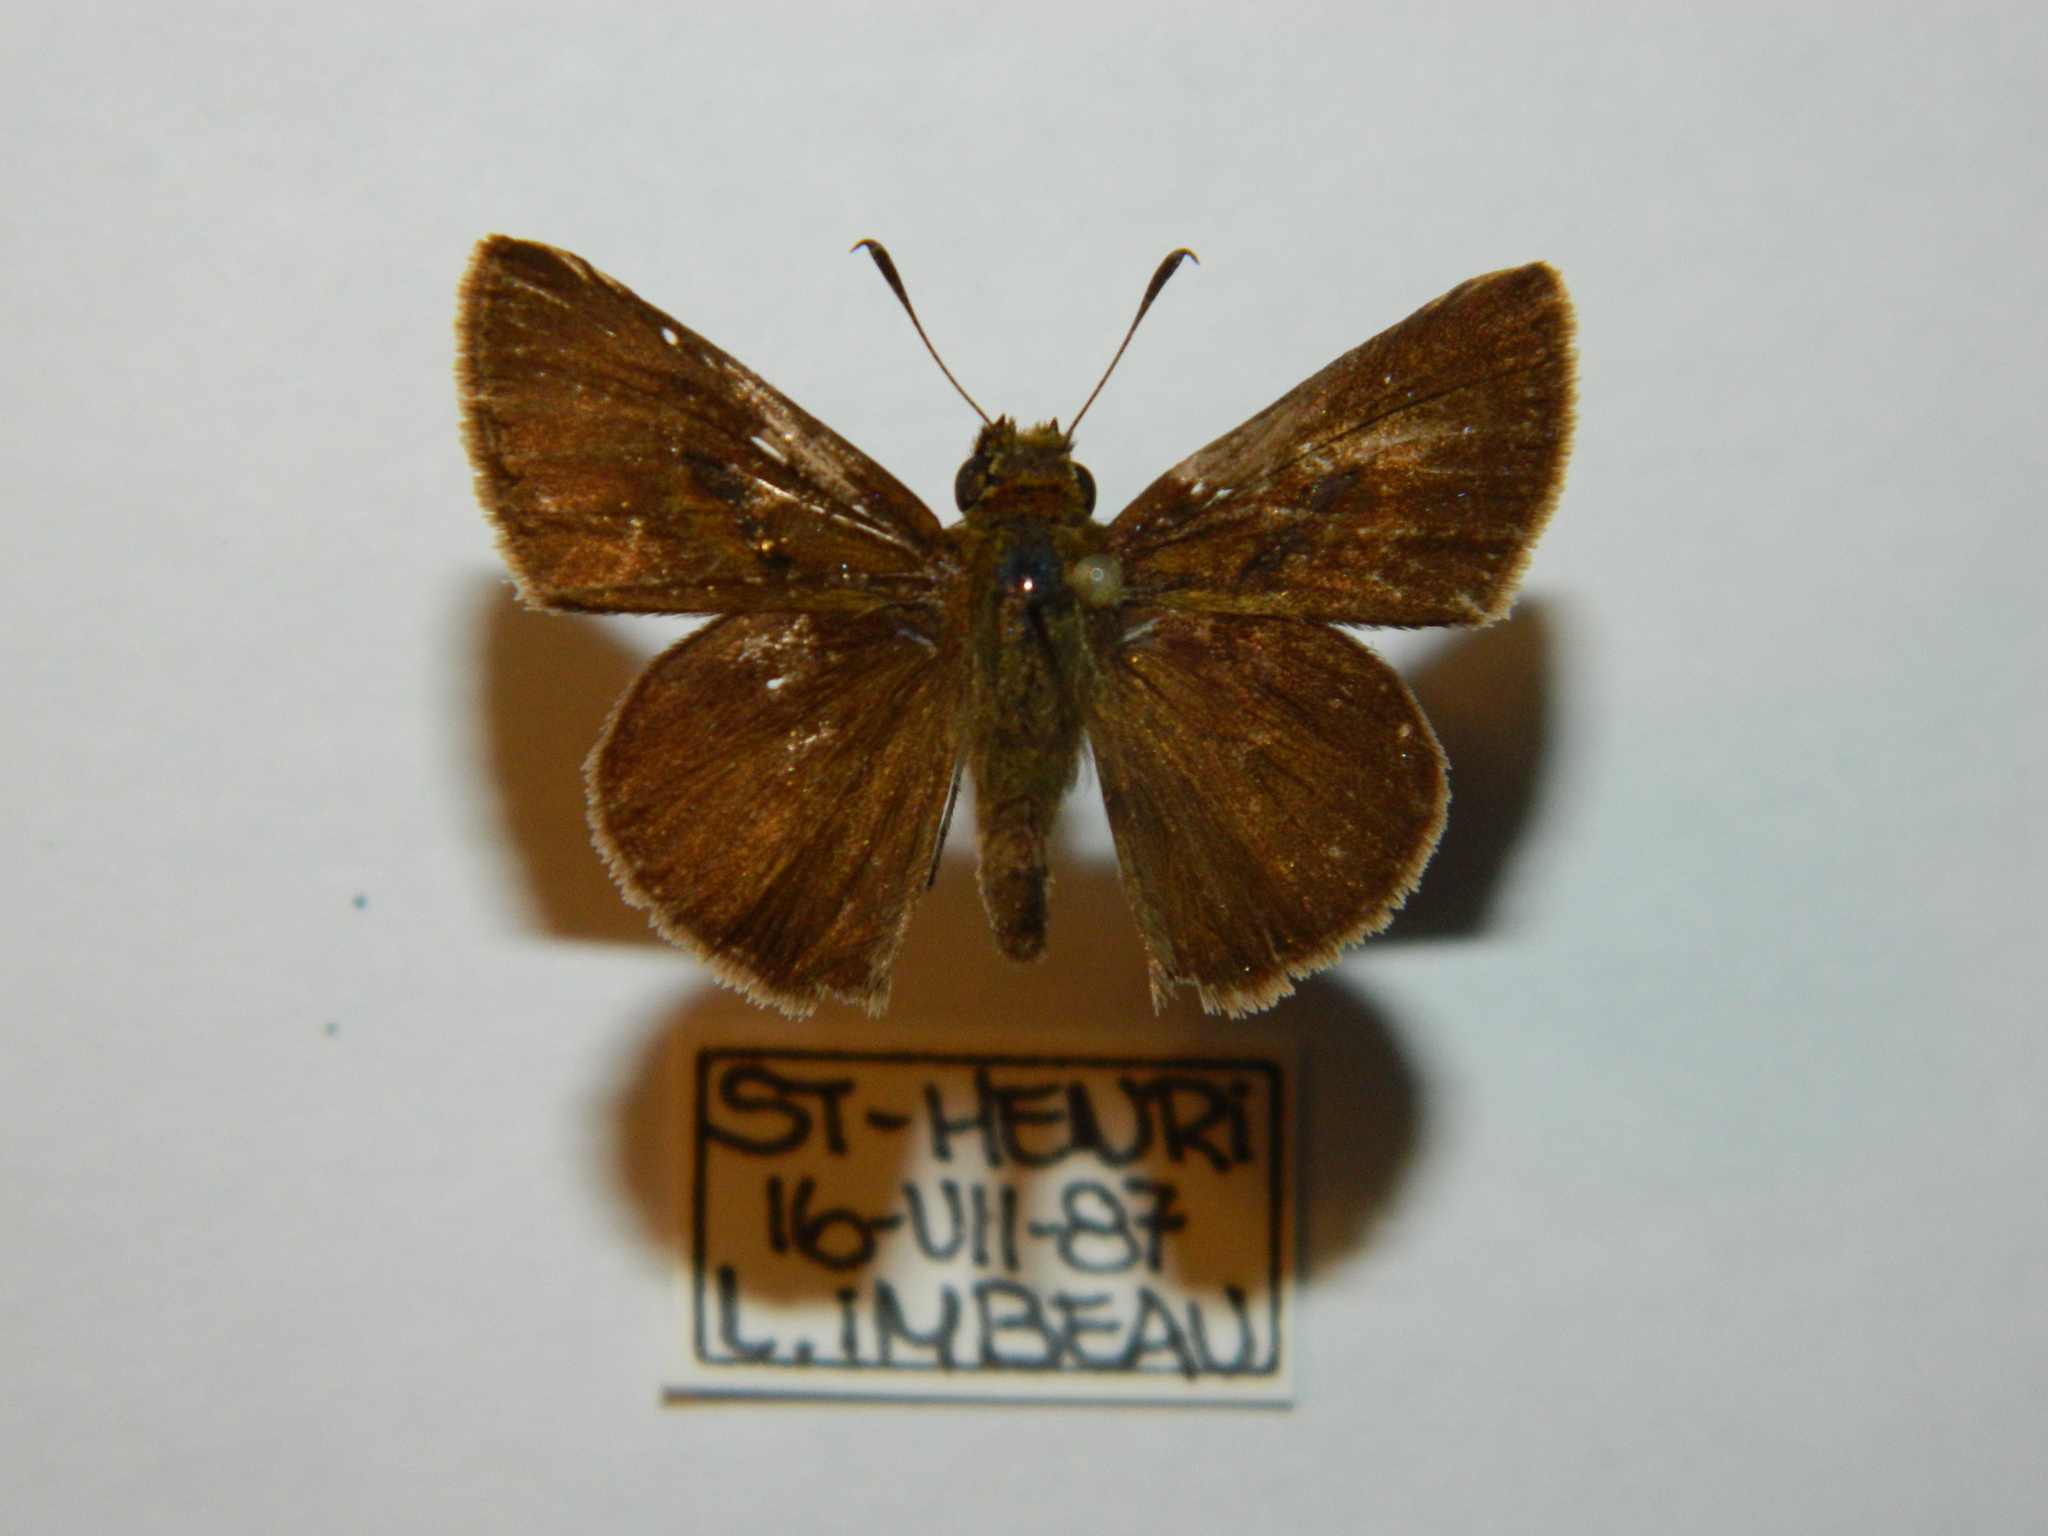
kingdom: Animalia
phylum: Arthropoda
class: Insecta
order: Lepidoptera
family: Hesperiidae
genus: Euphyes
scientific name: Euphyes vestris
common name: Dun skipper
